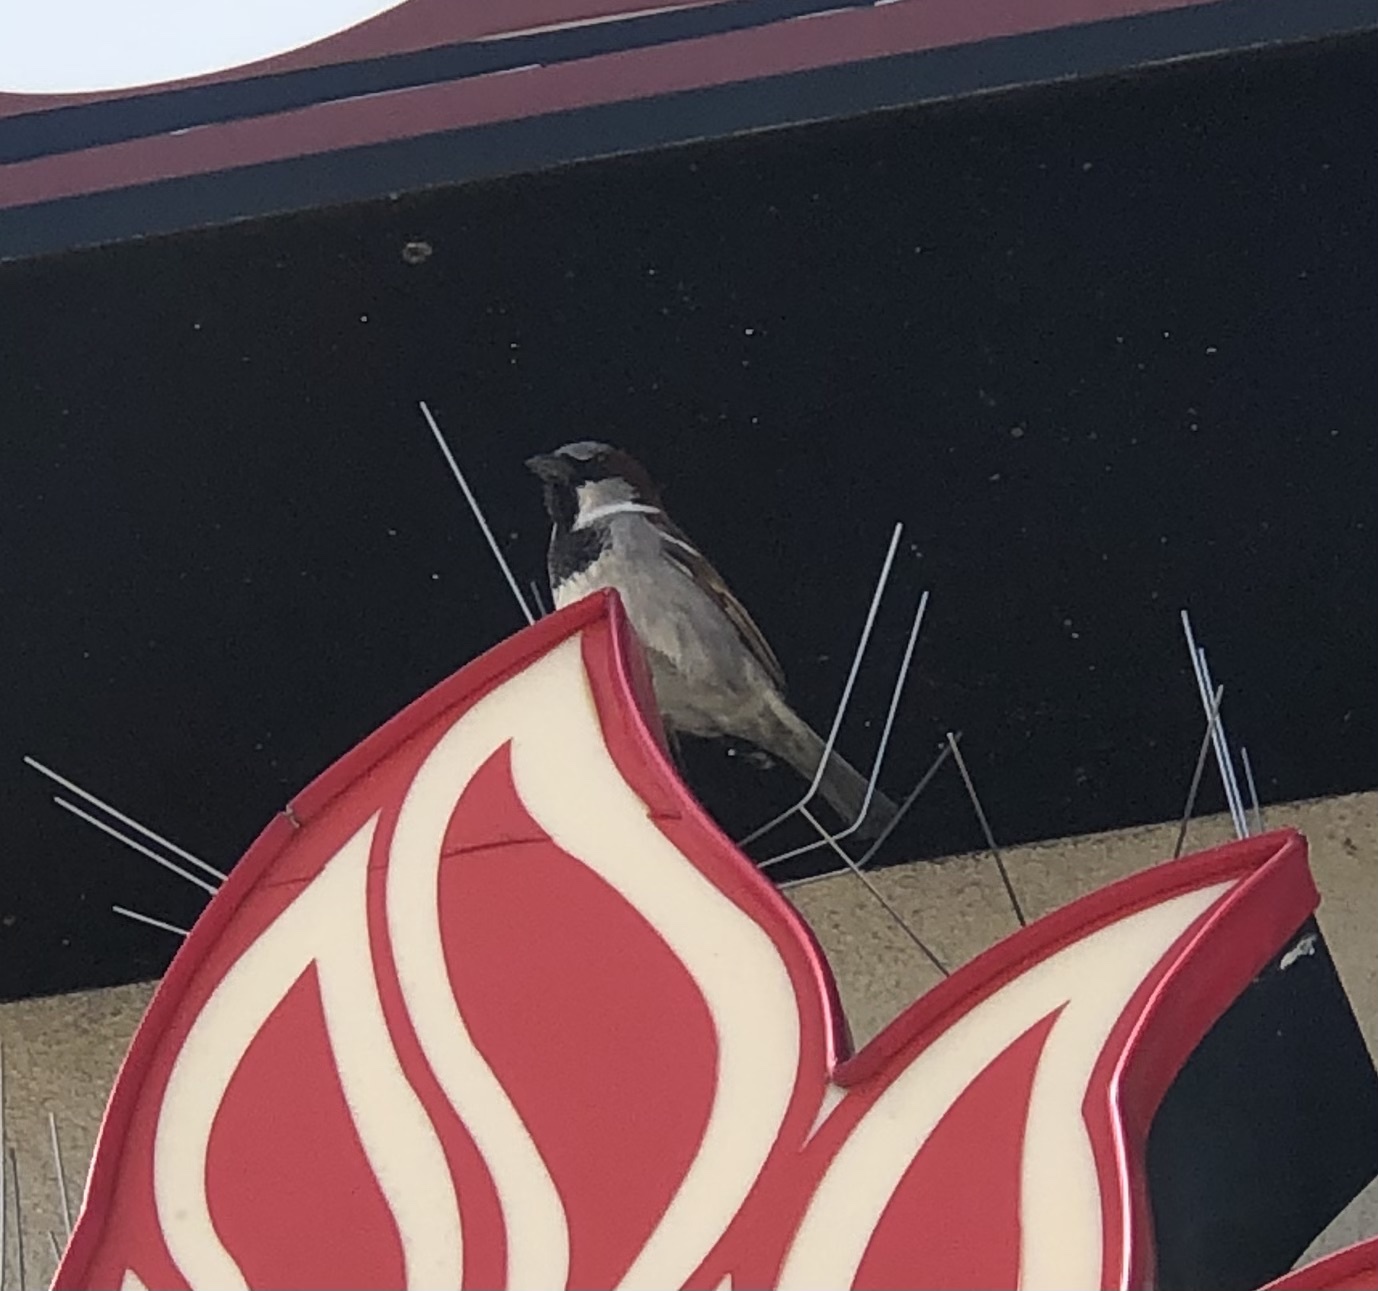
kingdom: Animalia
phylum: Chordata
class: Aves
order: Passeriformes
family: Passeridae
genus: Passer
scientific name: Passer domesticus
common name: House sparrow
